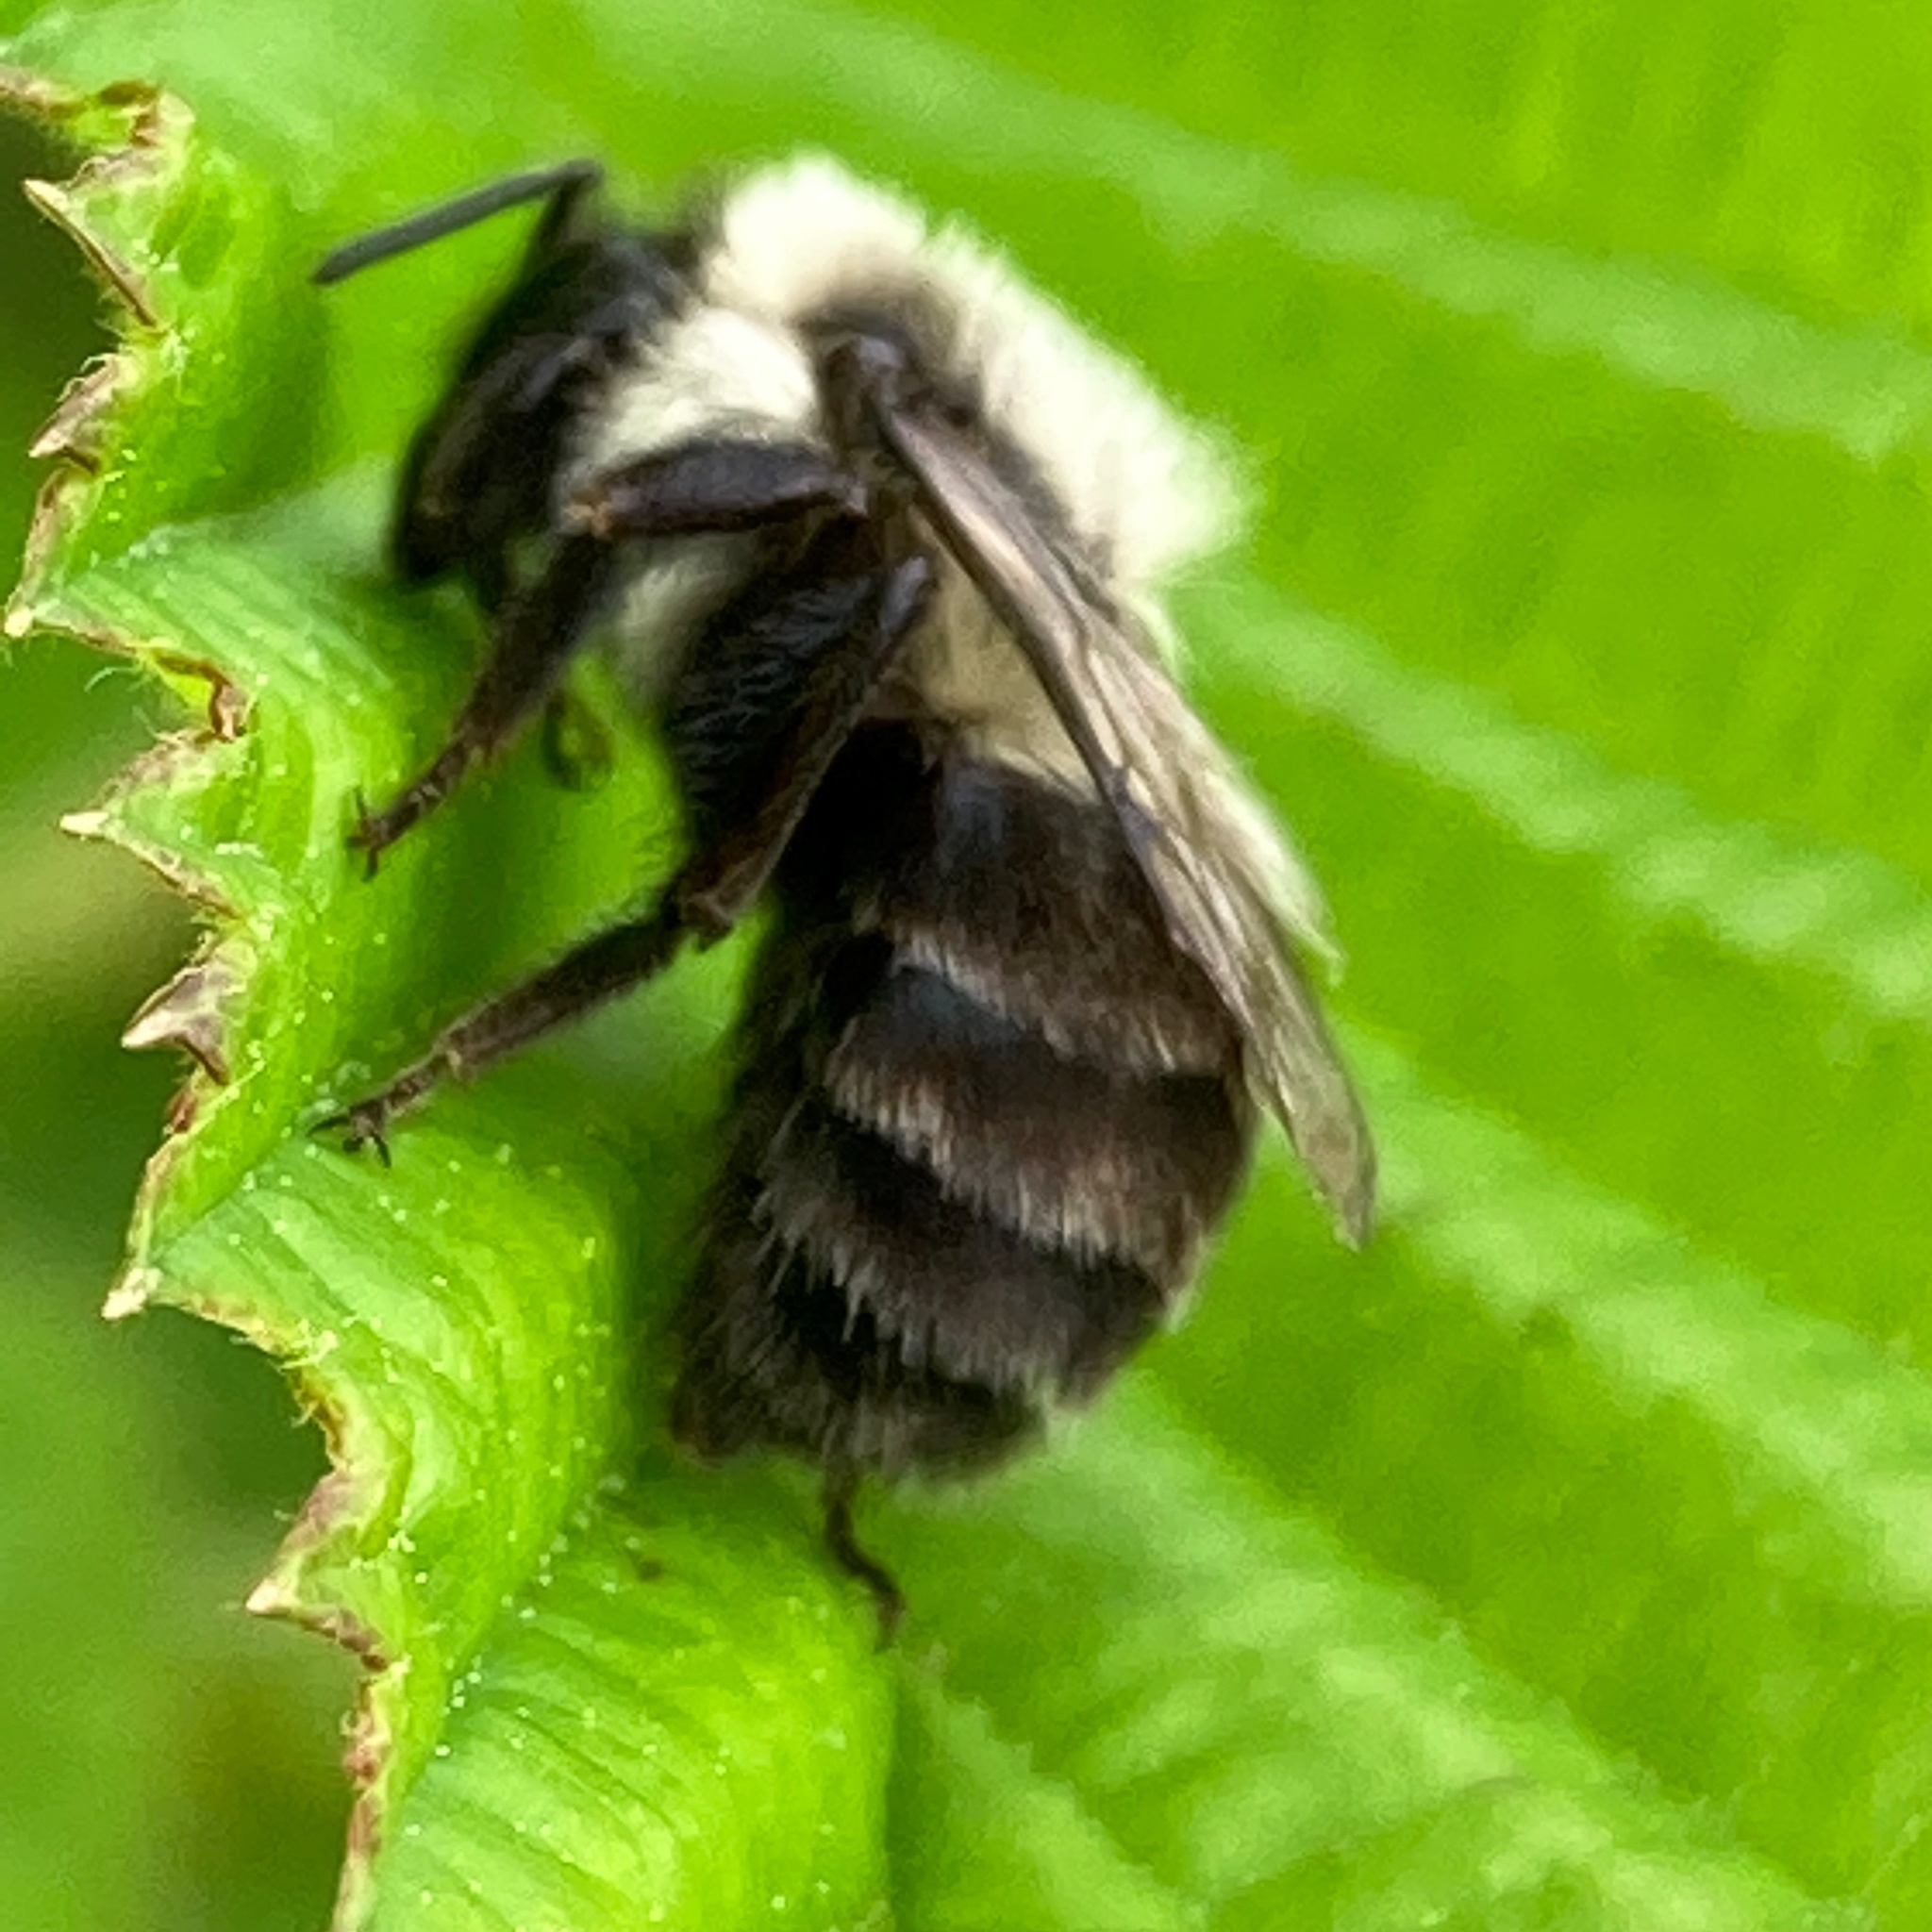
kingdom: Animalia
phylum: Arthropoda
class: Insecta
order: Hymenoptera
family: Apidae
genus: Bombus
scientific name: Bombus impatiens
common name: Common eastern bumble bee
